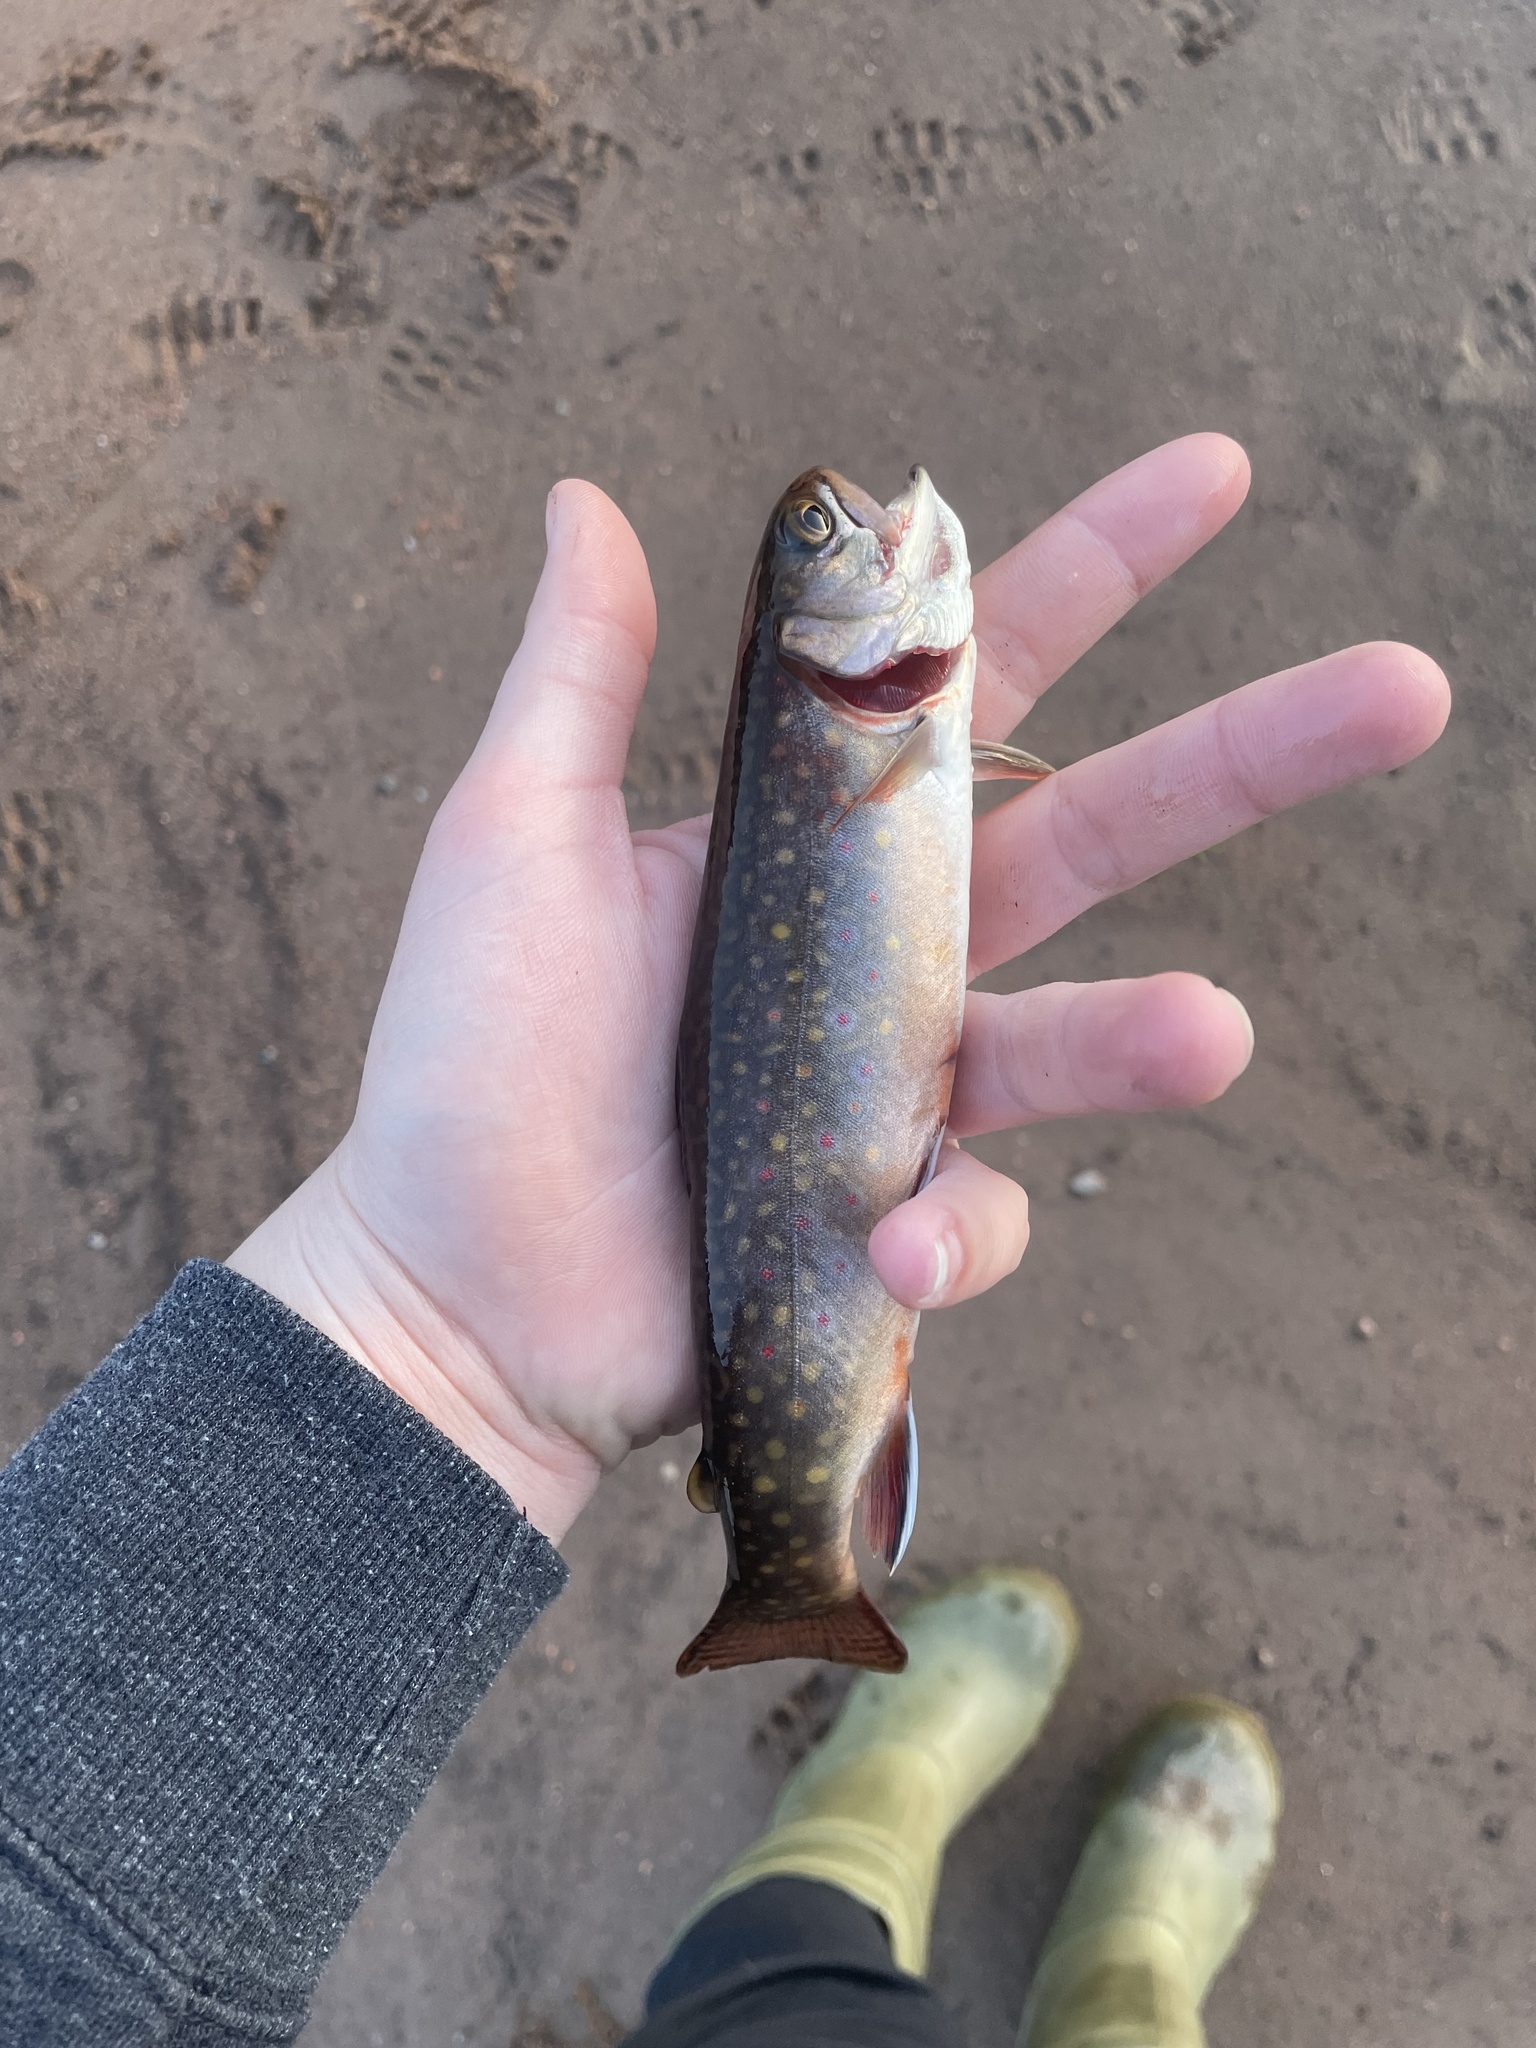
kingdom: Animalia
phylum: Chordata
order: Salmoniformes
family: Salmonidae
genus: Salvelinus
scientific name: Salvelinus fontinalis
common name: Brook trout
